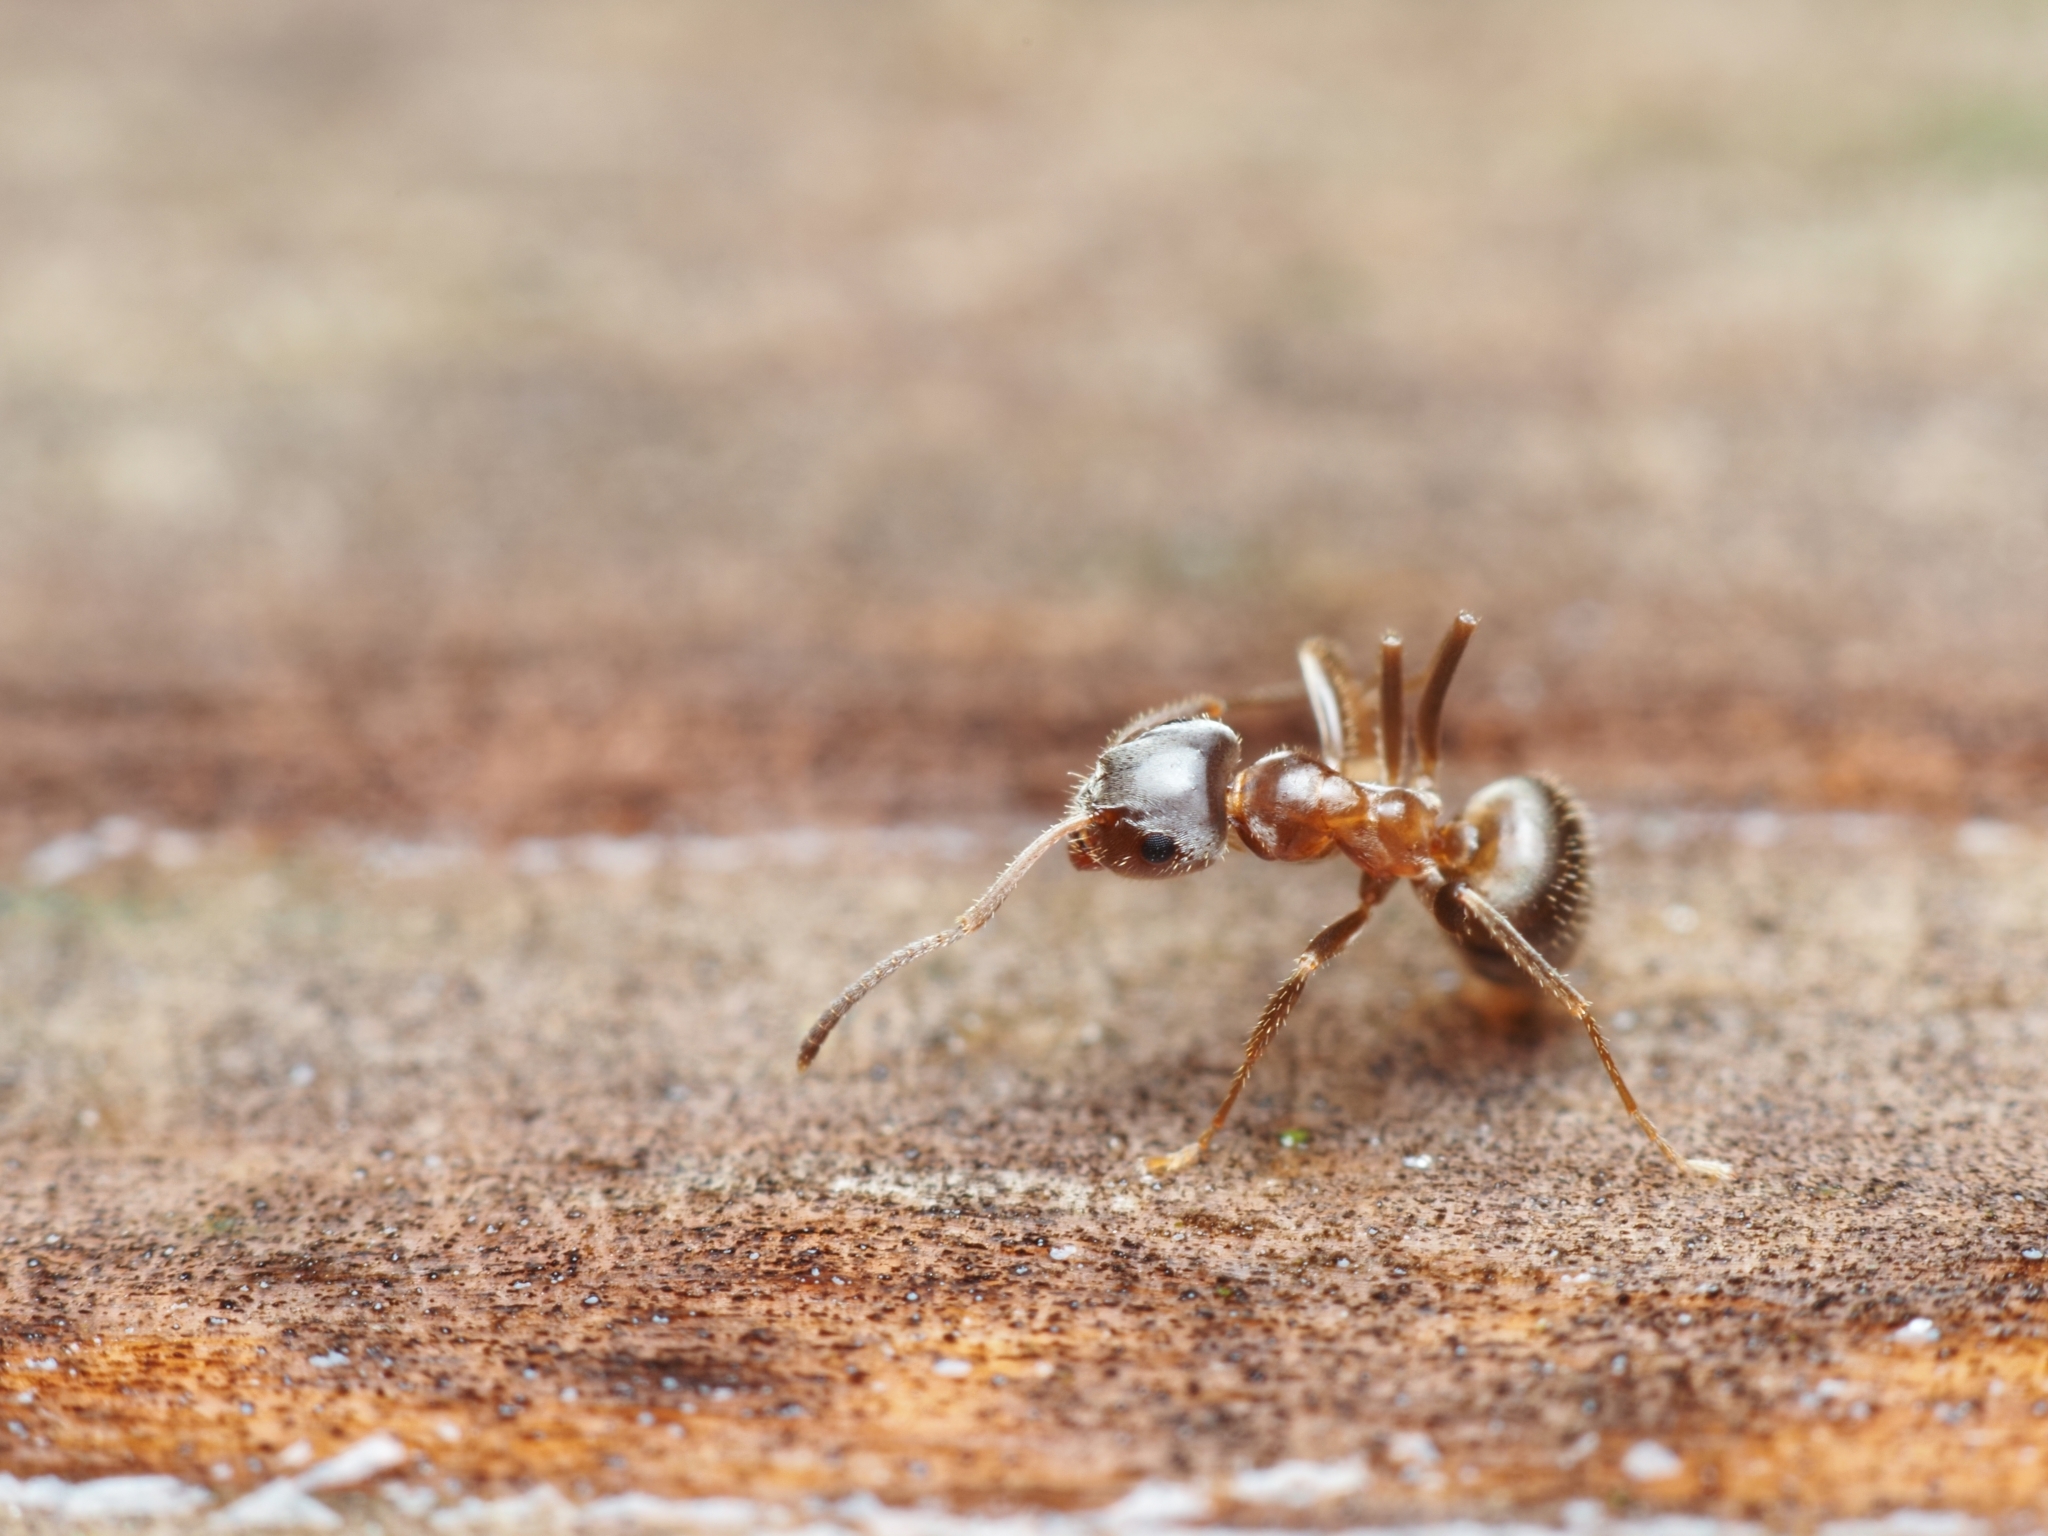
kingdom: Animalia
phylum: Arthropoda
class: Insecta
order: Hymenoptera
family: Formicidae
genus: Lasius
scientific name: Lasius emarginatus
